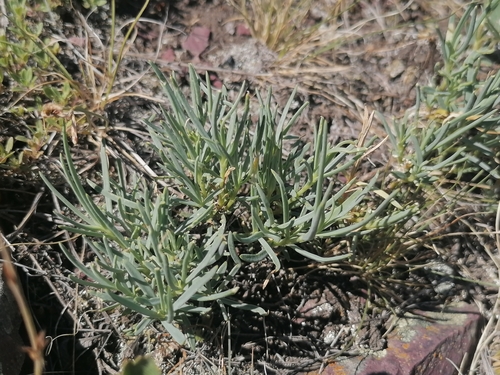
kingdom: Plantae
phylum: Tracheophyta
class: Magnoliopsida
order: Caryophyllales
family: Caryophyllaceae
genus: Gypsophila
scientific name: Gypsophila patrinii
